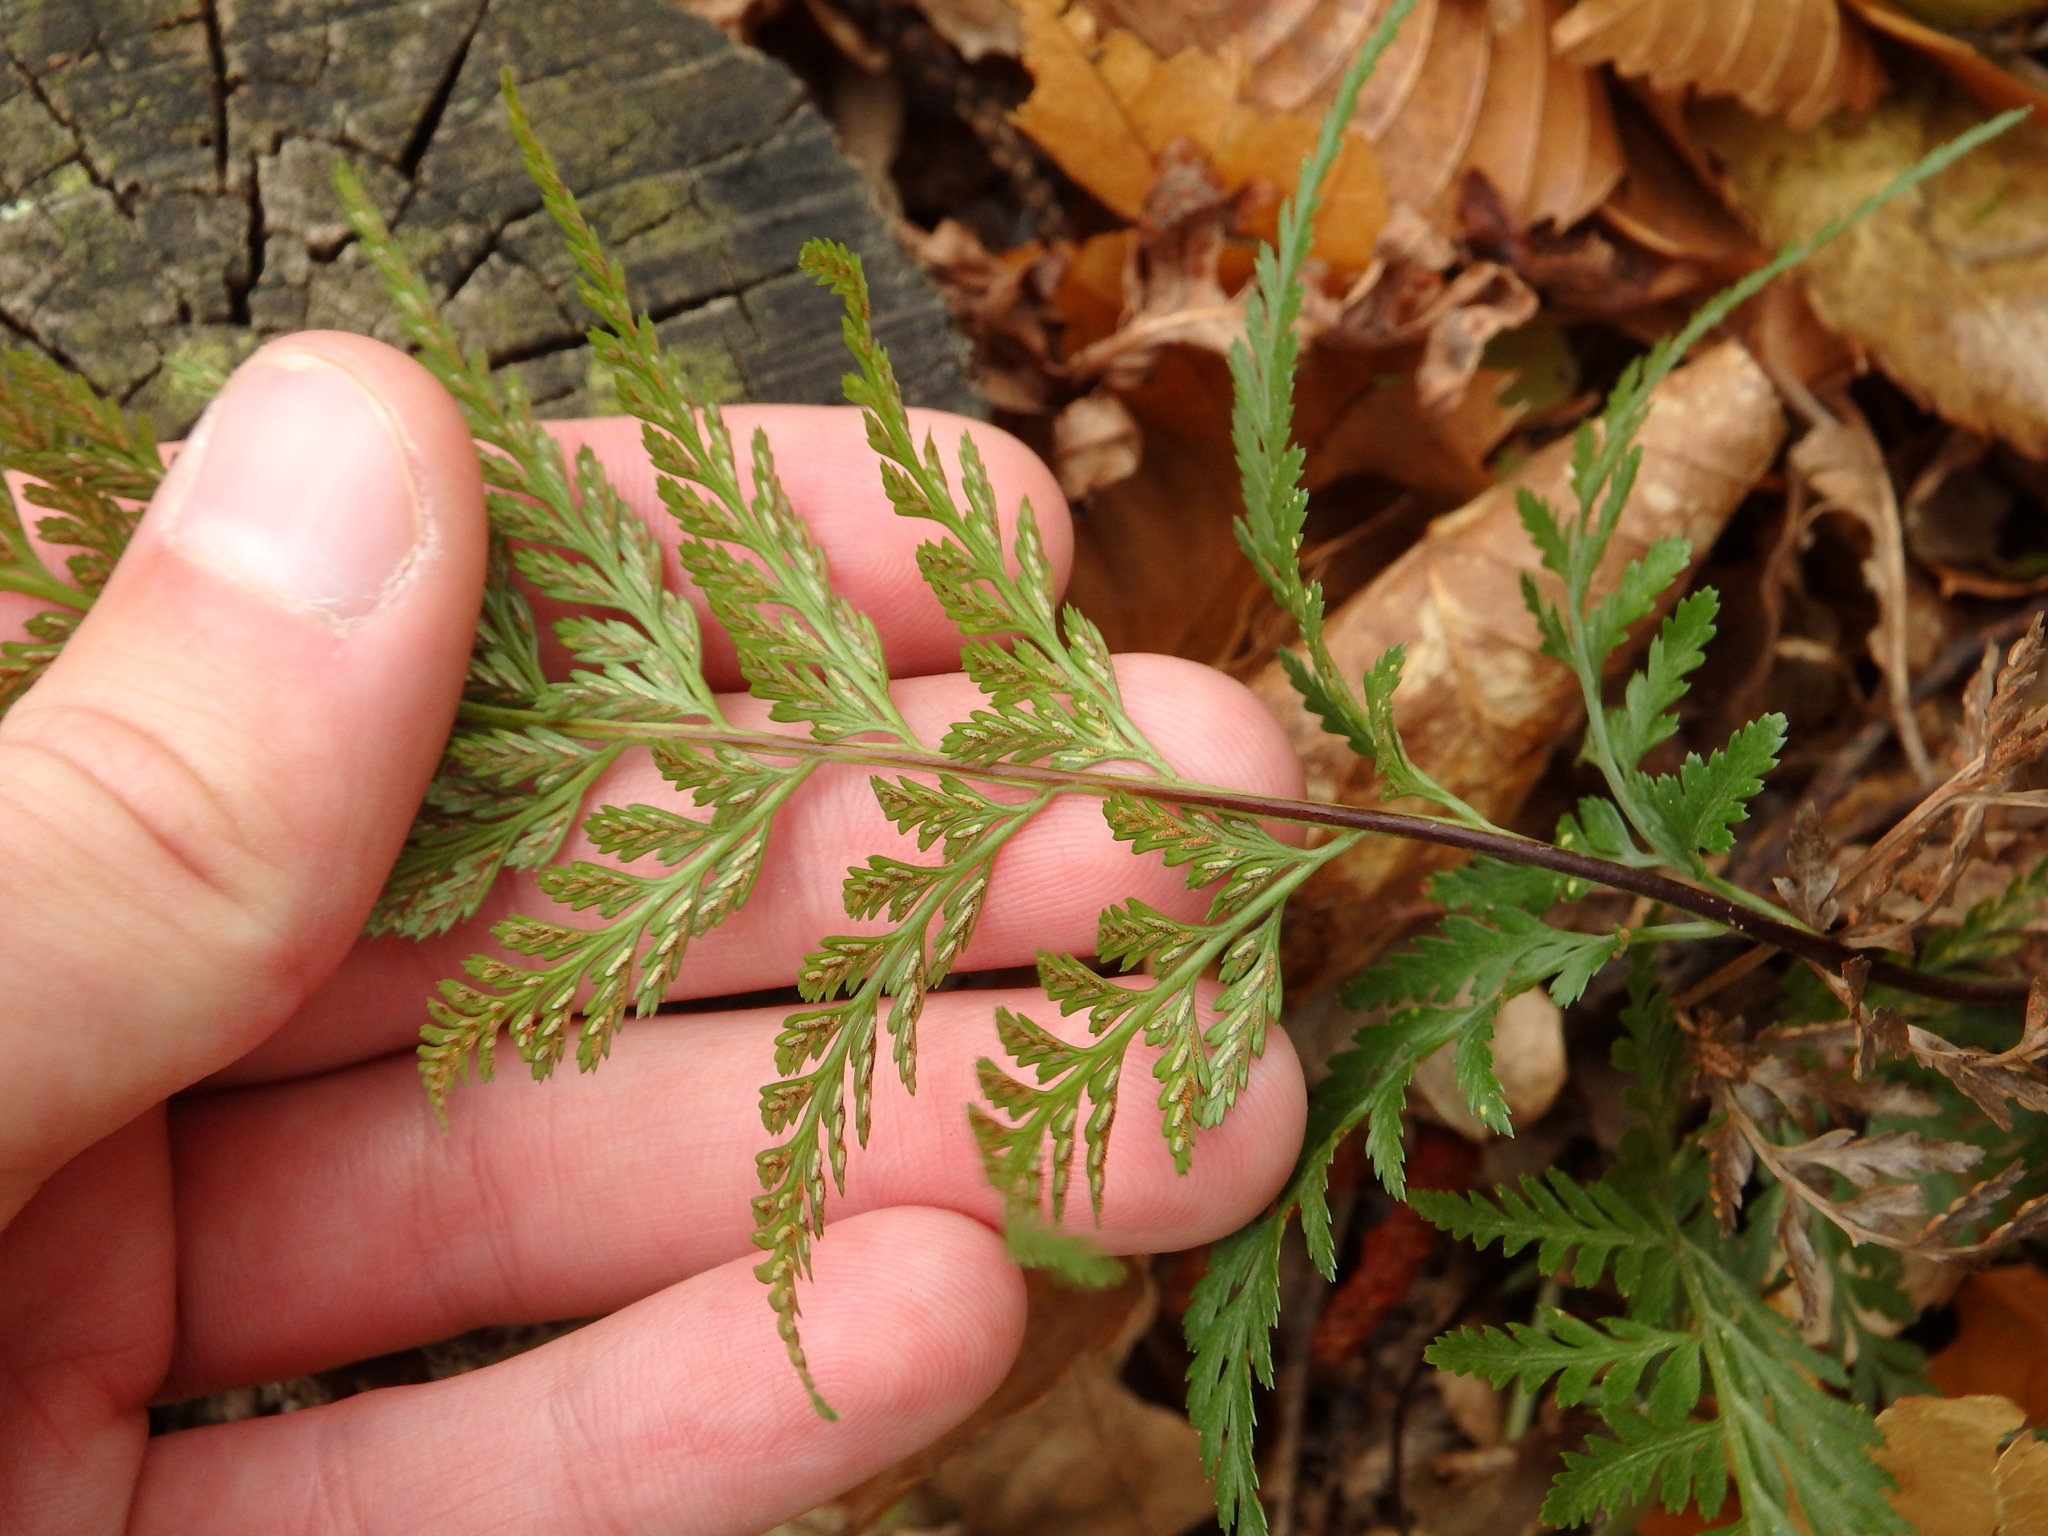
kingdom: Plantae
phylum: Tracheophyta
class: Polypodiopsida
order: Polypodiales
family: Aspleniaceae
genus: Asplenium
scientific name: Asplenium onopteris
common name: Irish spleenwort
